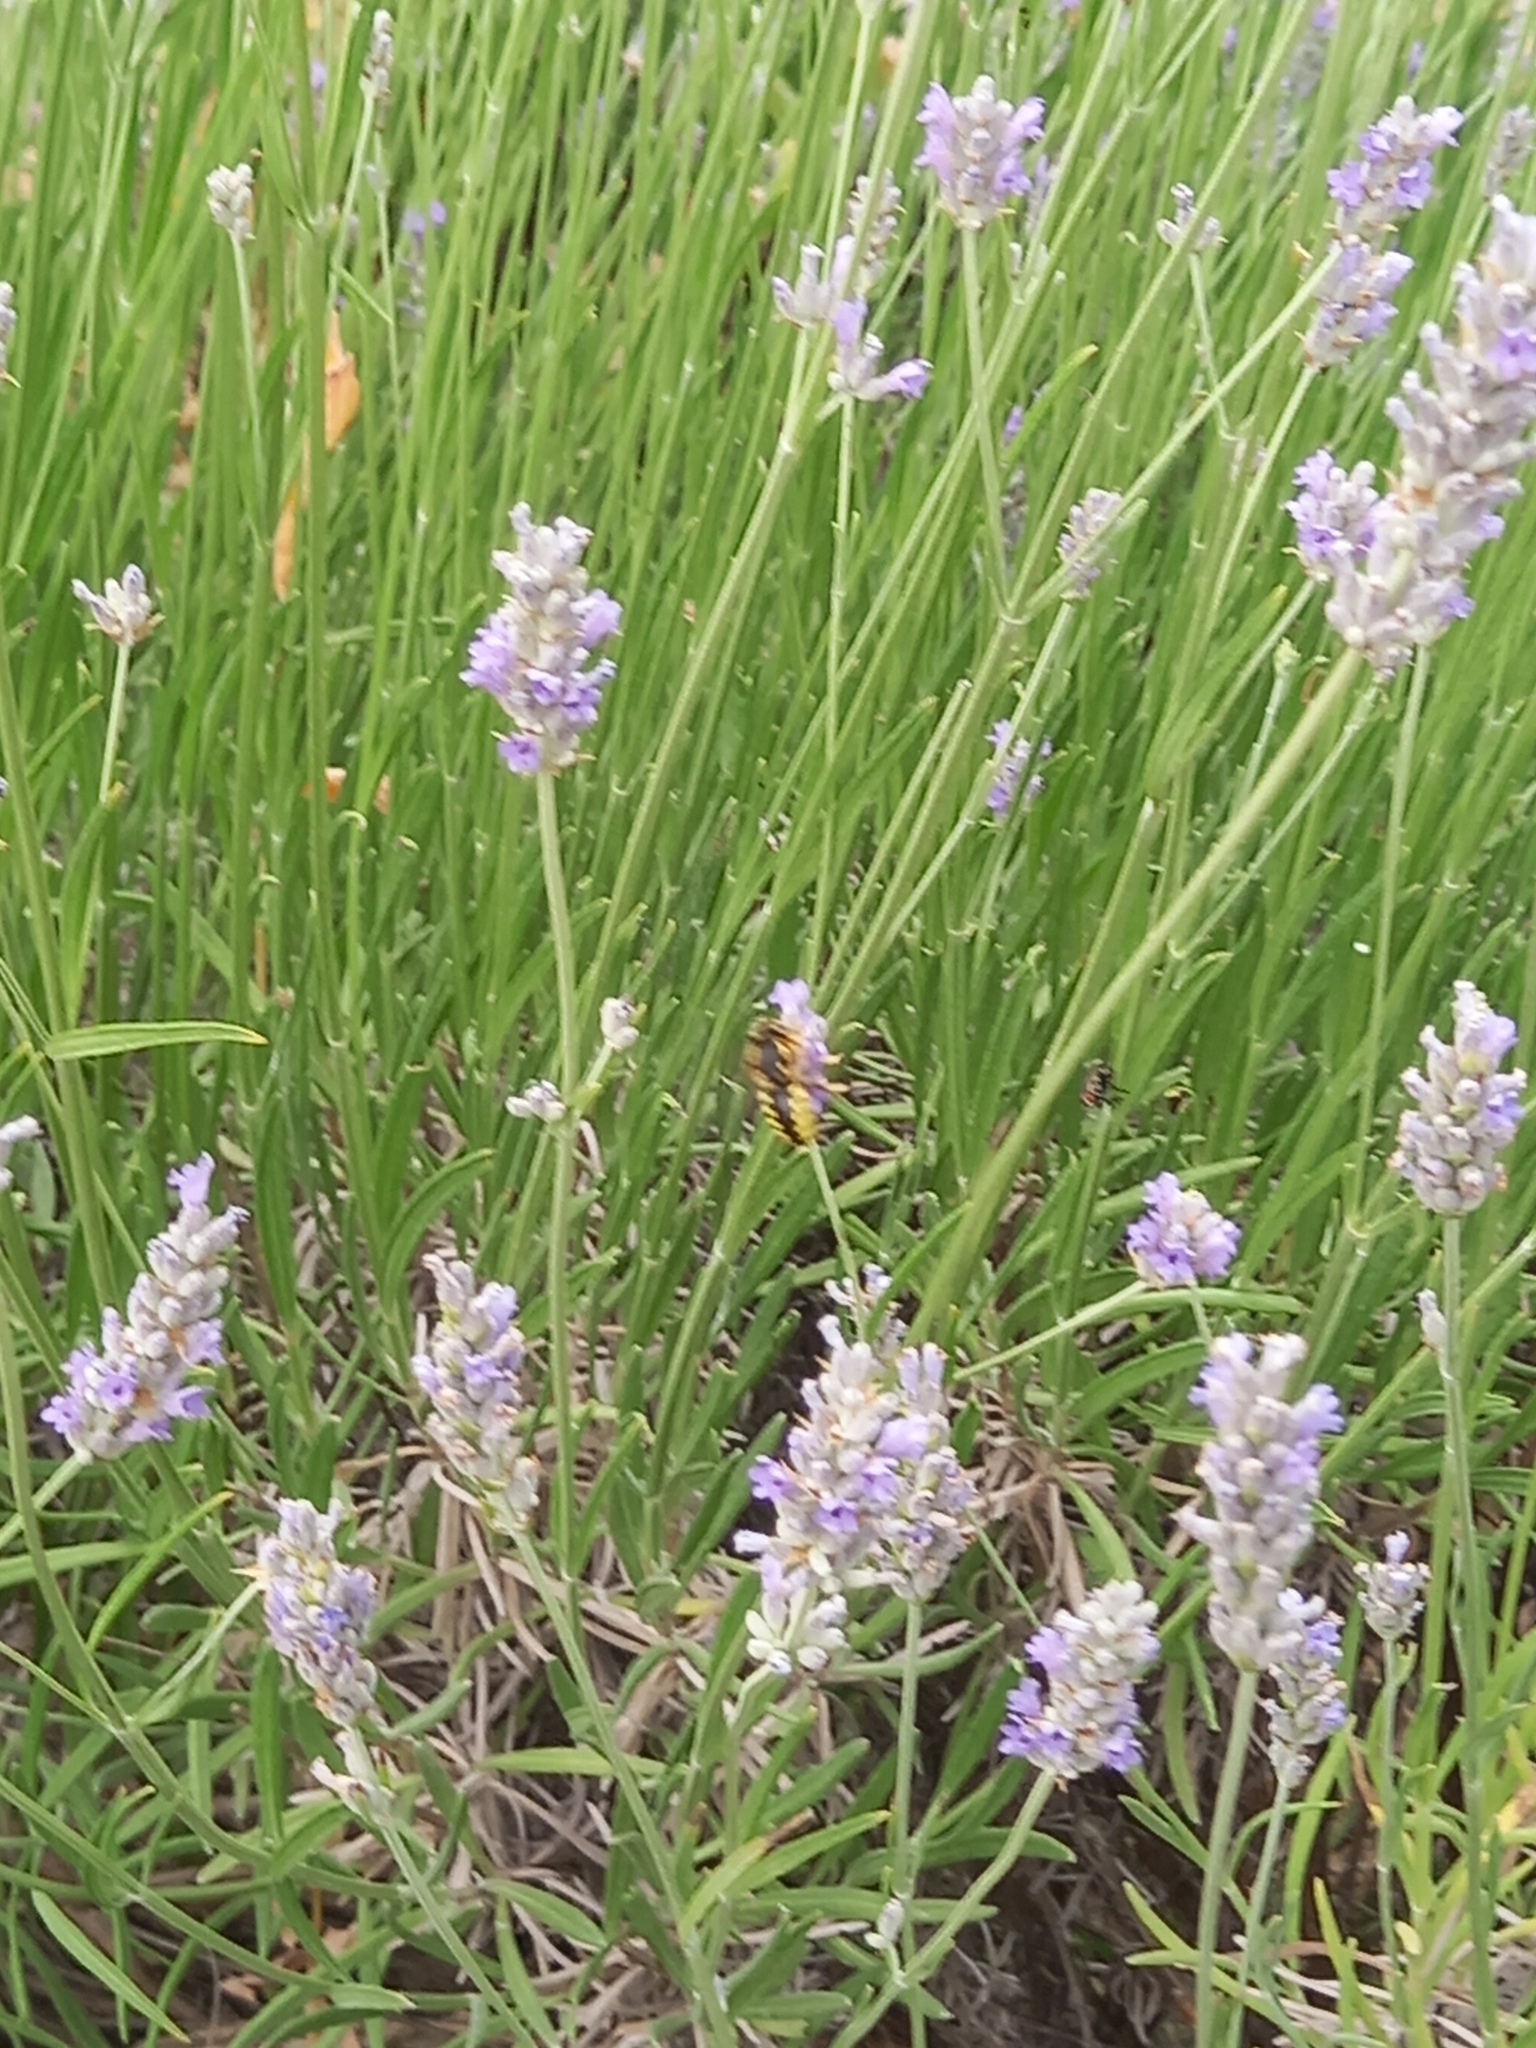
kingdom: Animalia
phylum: Arthropoda
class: Insecta
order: Hymenoptera
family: Megachilidae
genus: Anthidium
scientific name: Anthidium florentinum
